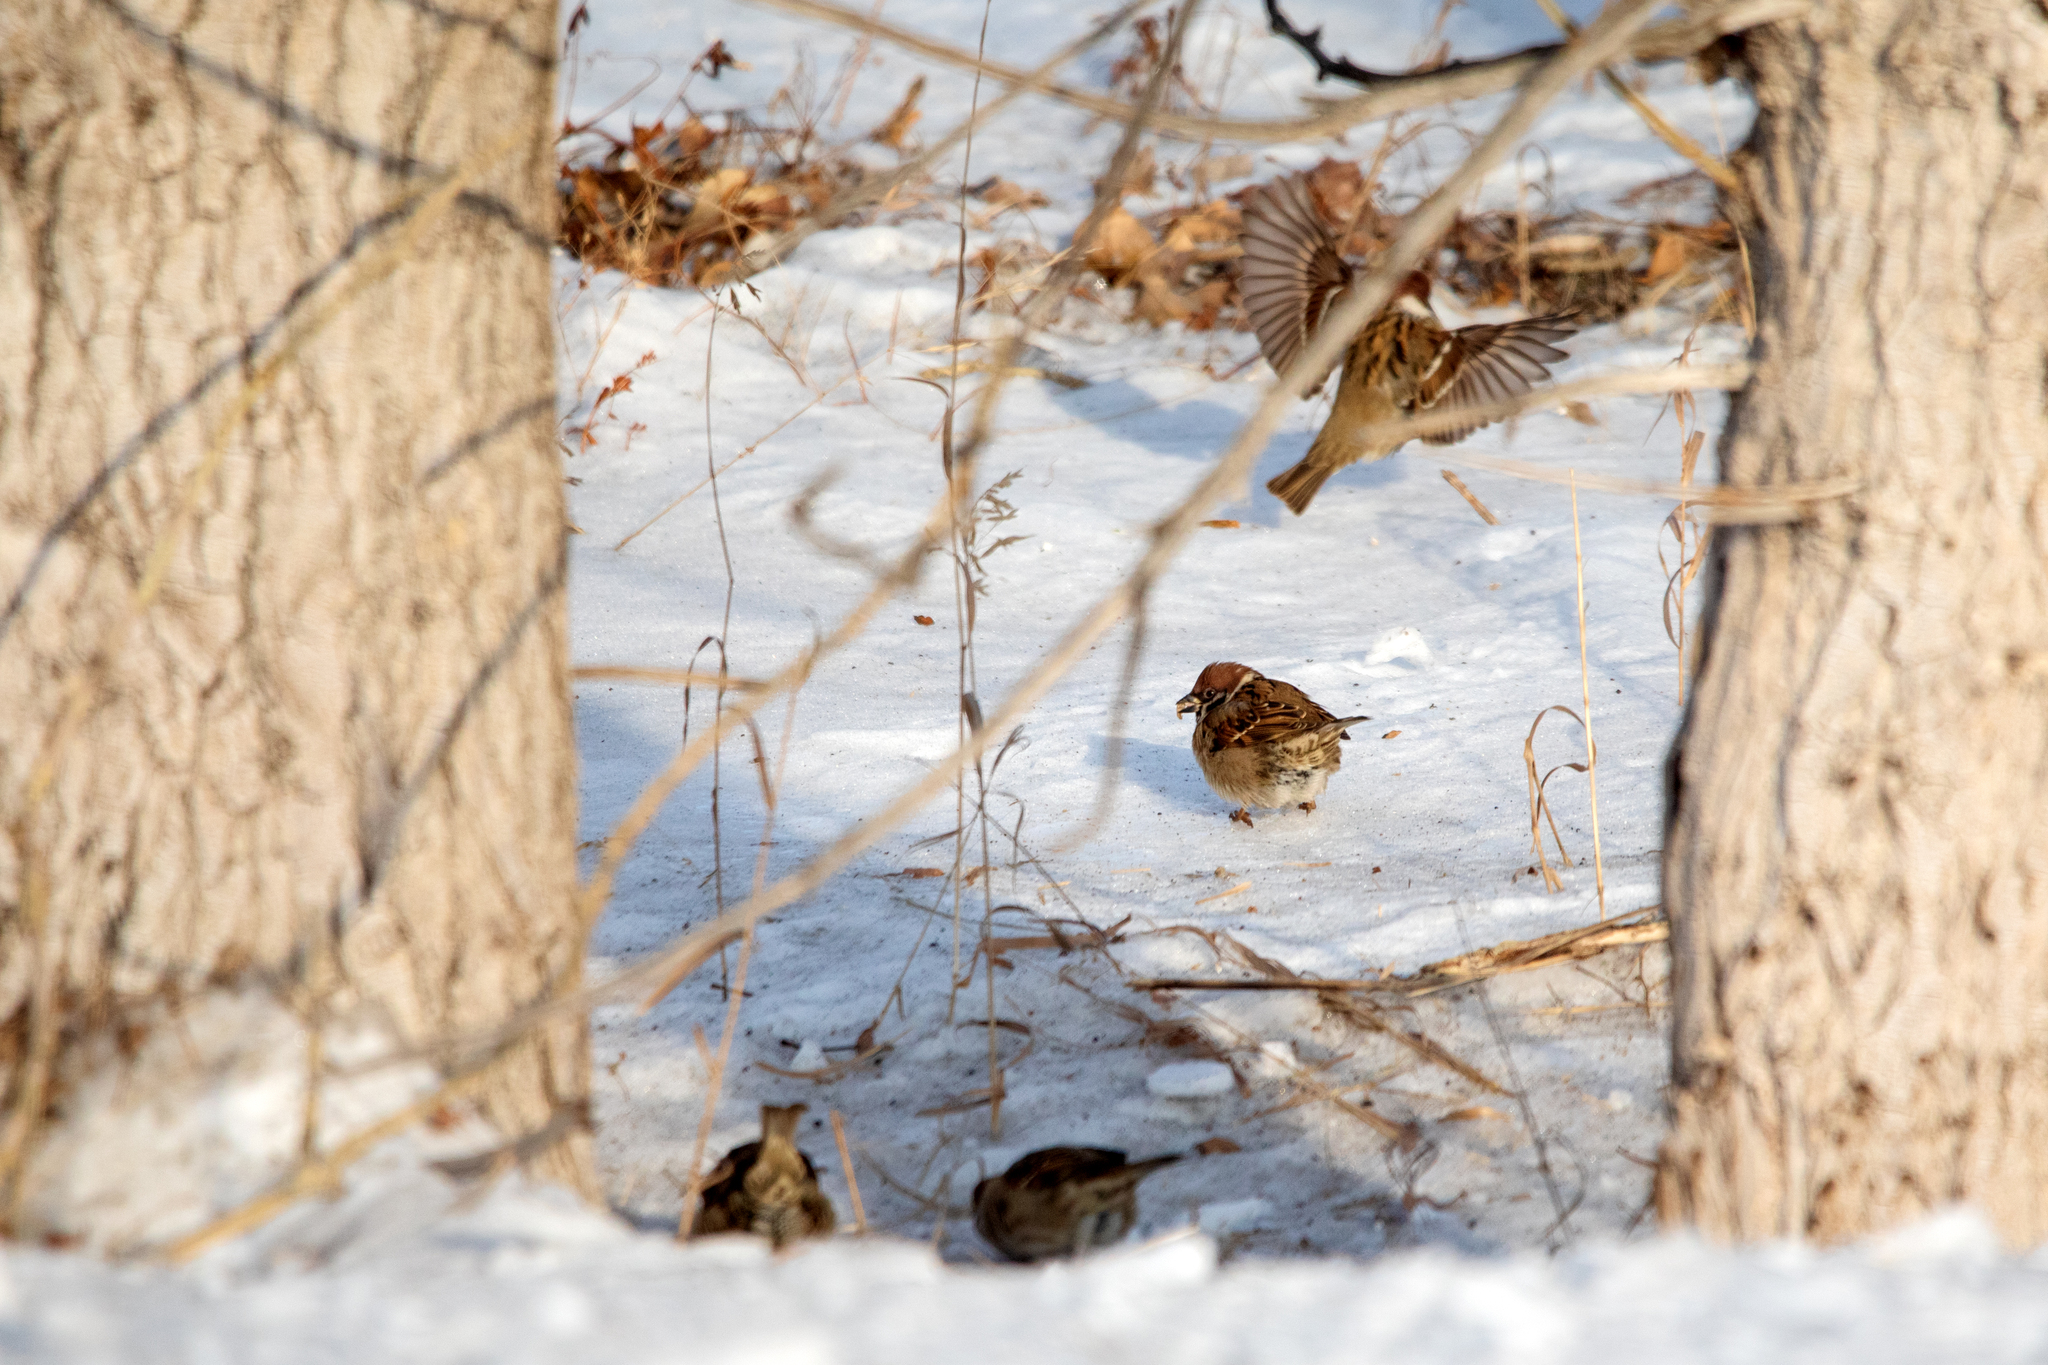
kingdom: Animalia
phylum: Chordata
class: Aves
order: Passeriformes
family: Passeridae
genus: Passer
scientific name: Passer montanus
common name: Eurasian tree sparrow
